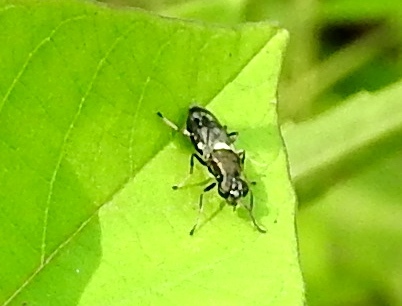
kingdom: Animalia
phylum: Arthropoda
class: Insecta
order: Diptera
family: Stratiomyidae
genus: Myxosargus
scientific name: Myxosargus
